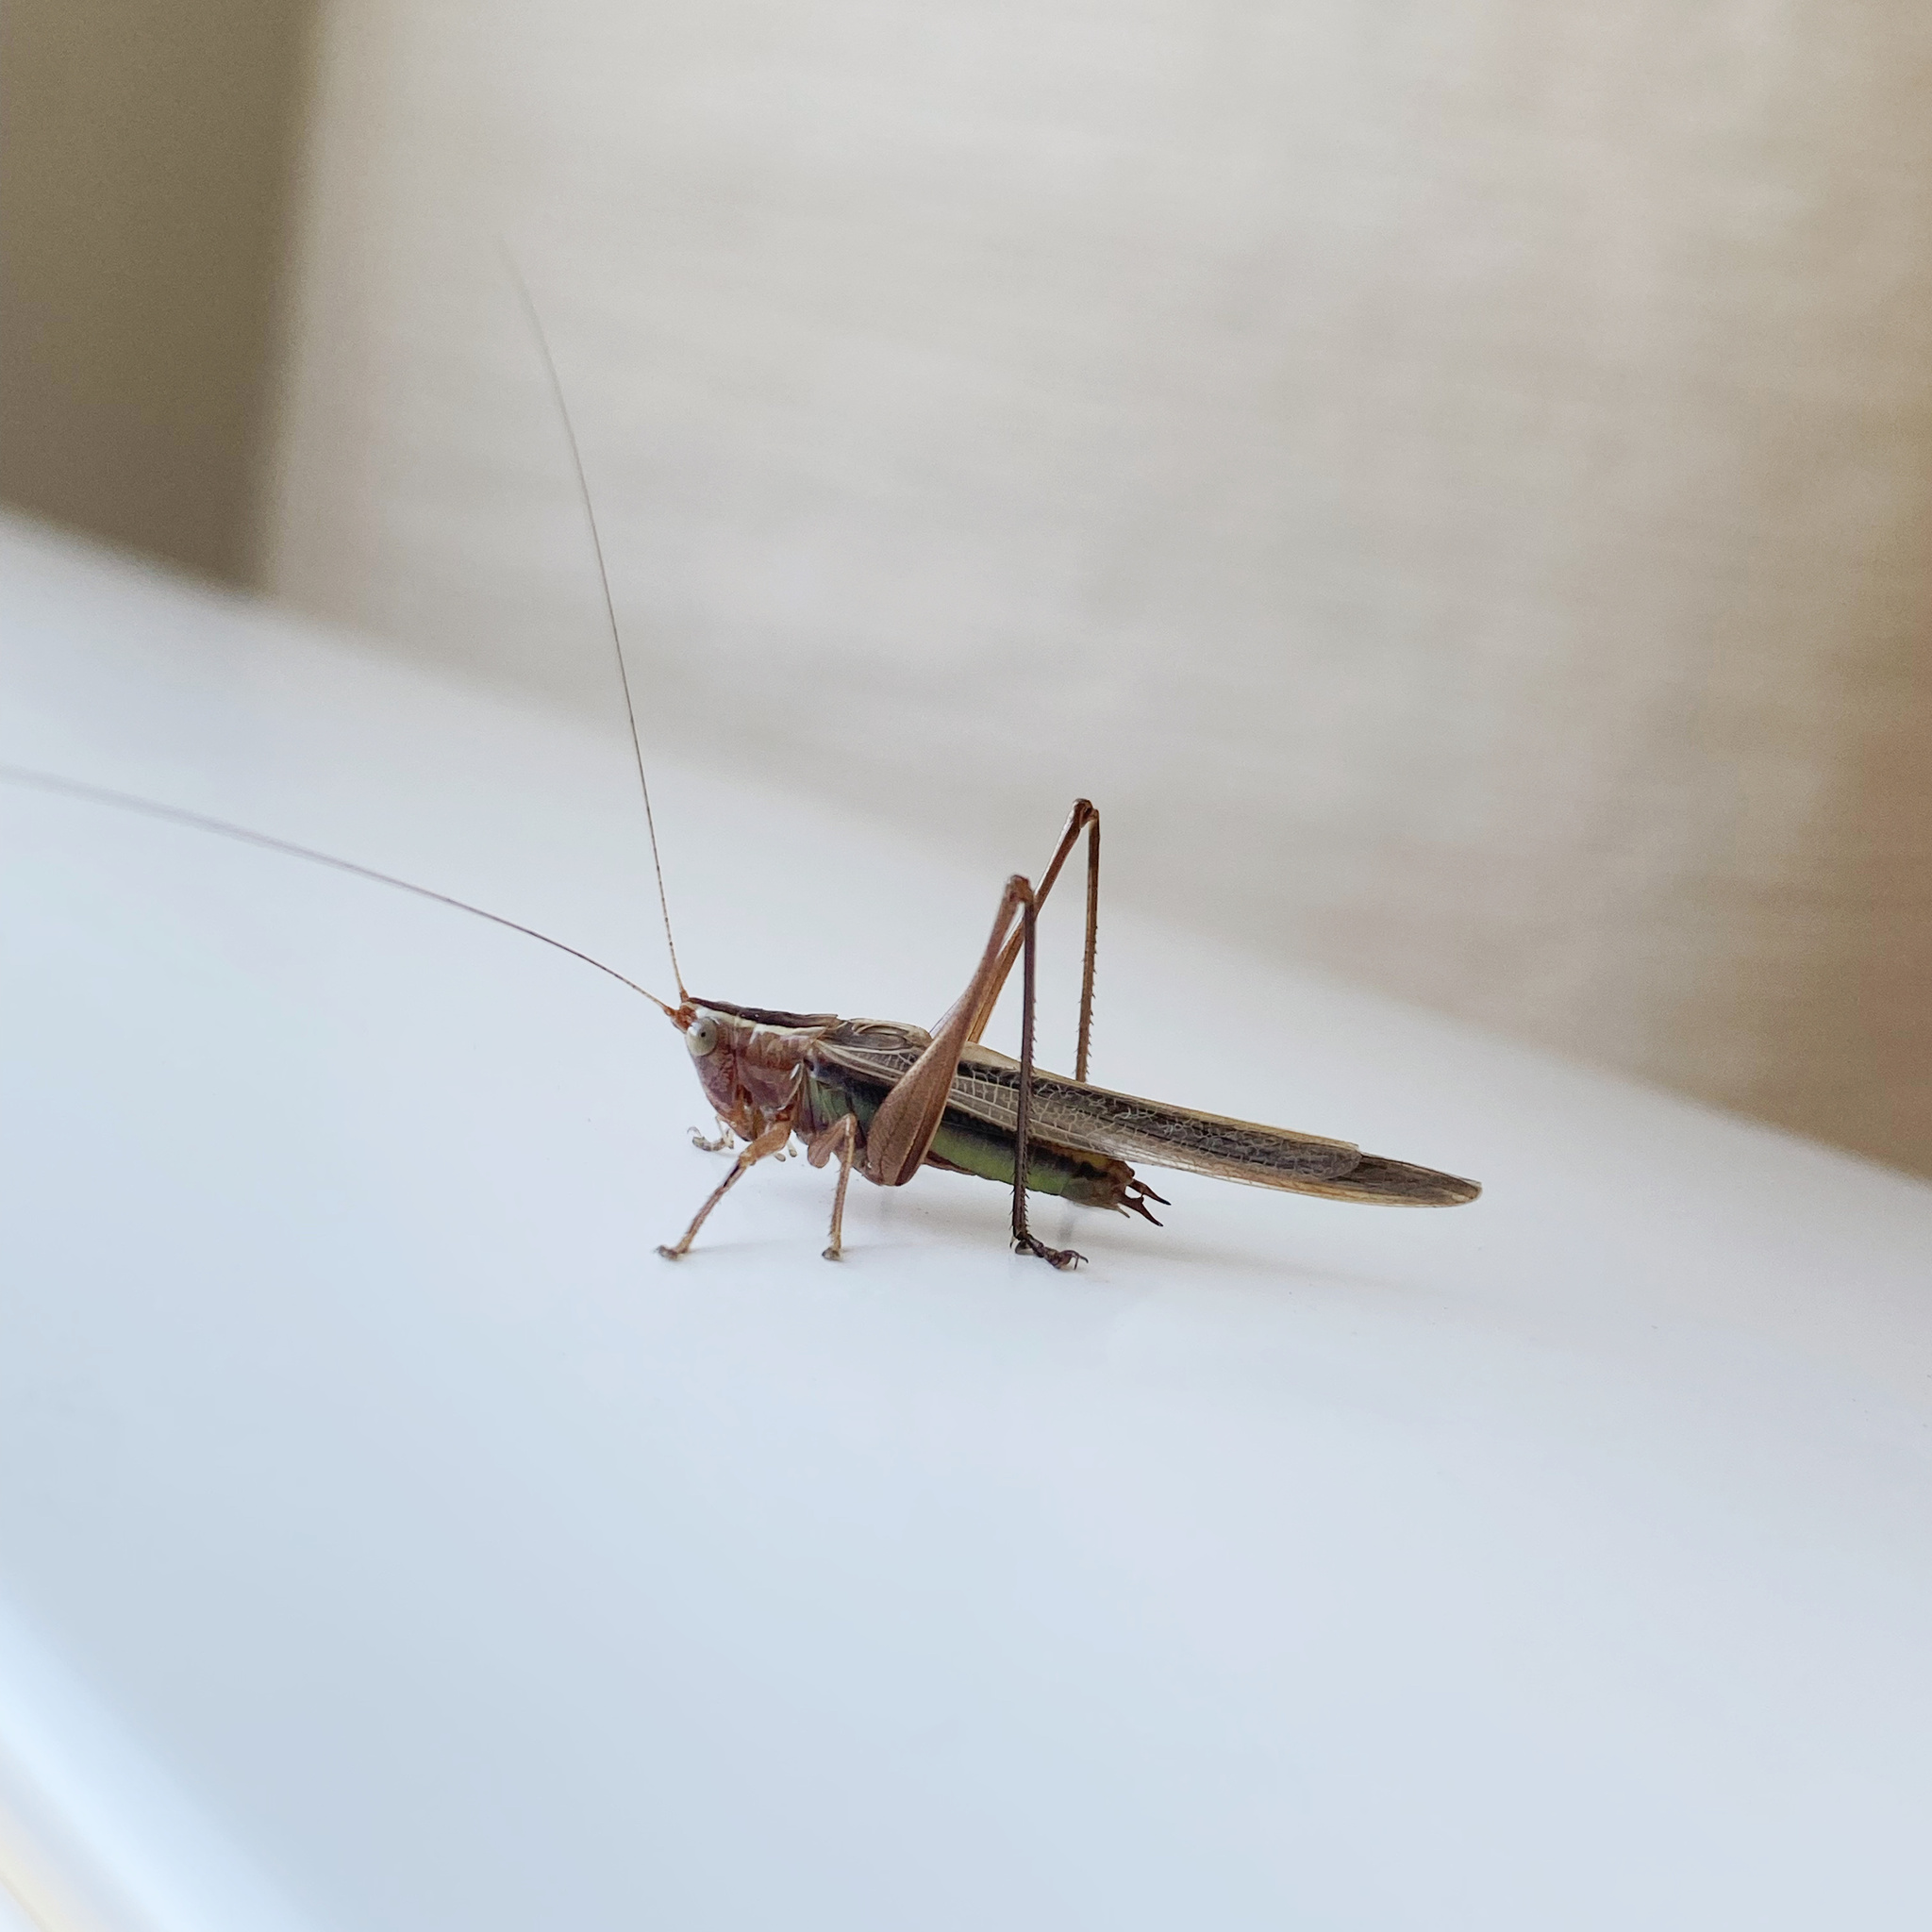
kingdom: Animalia
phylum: Arthropoda
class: Insecta
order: Orthoptera
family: Tettigoniidae
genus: Conocephalus
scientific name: Conocephalus albescens
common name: Whitish meadow katydid
